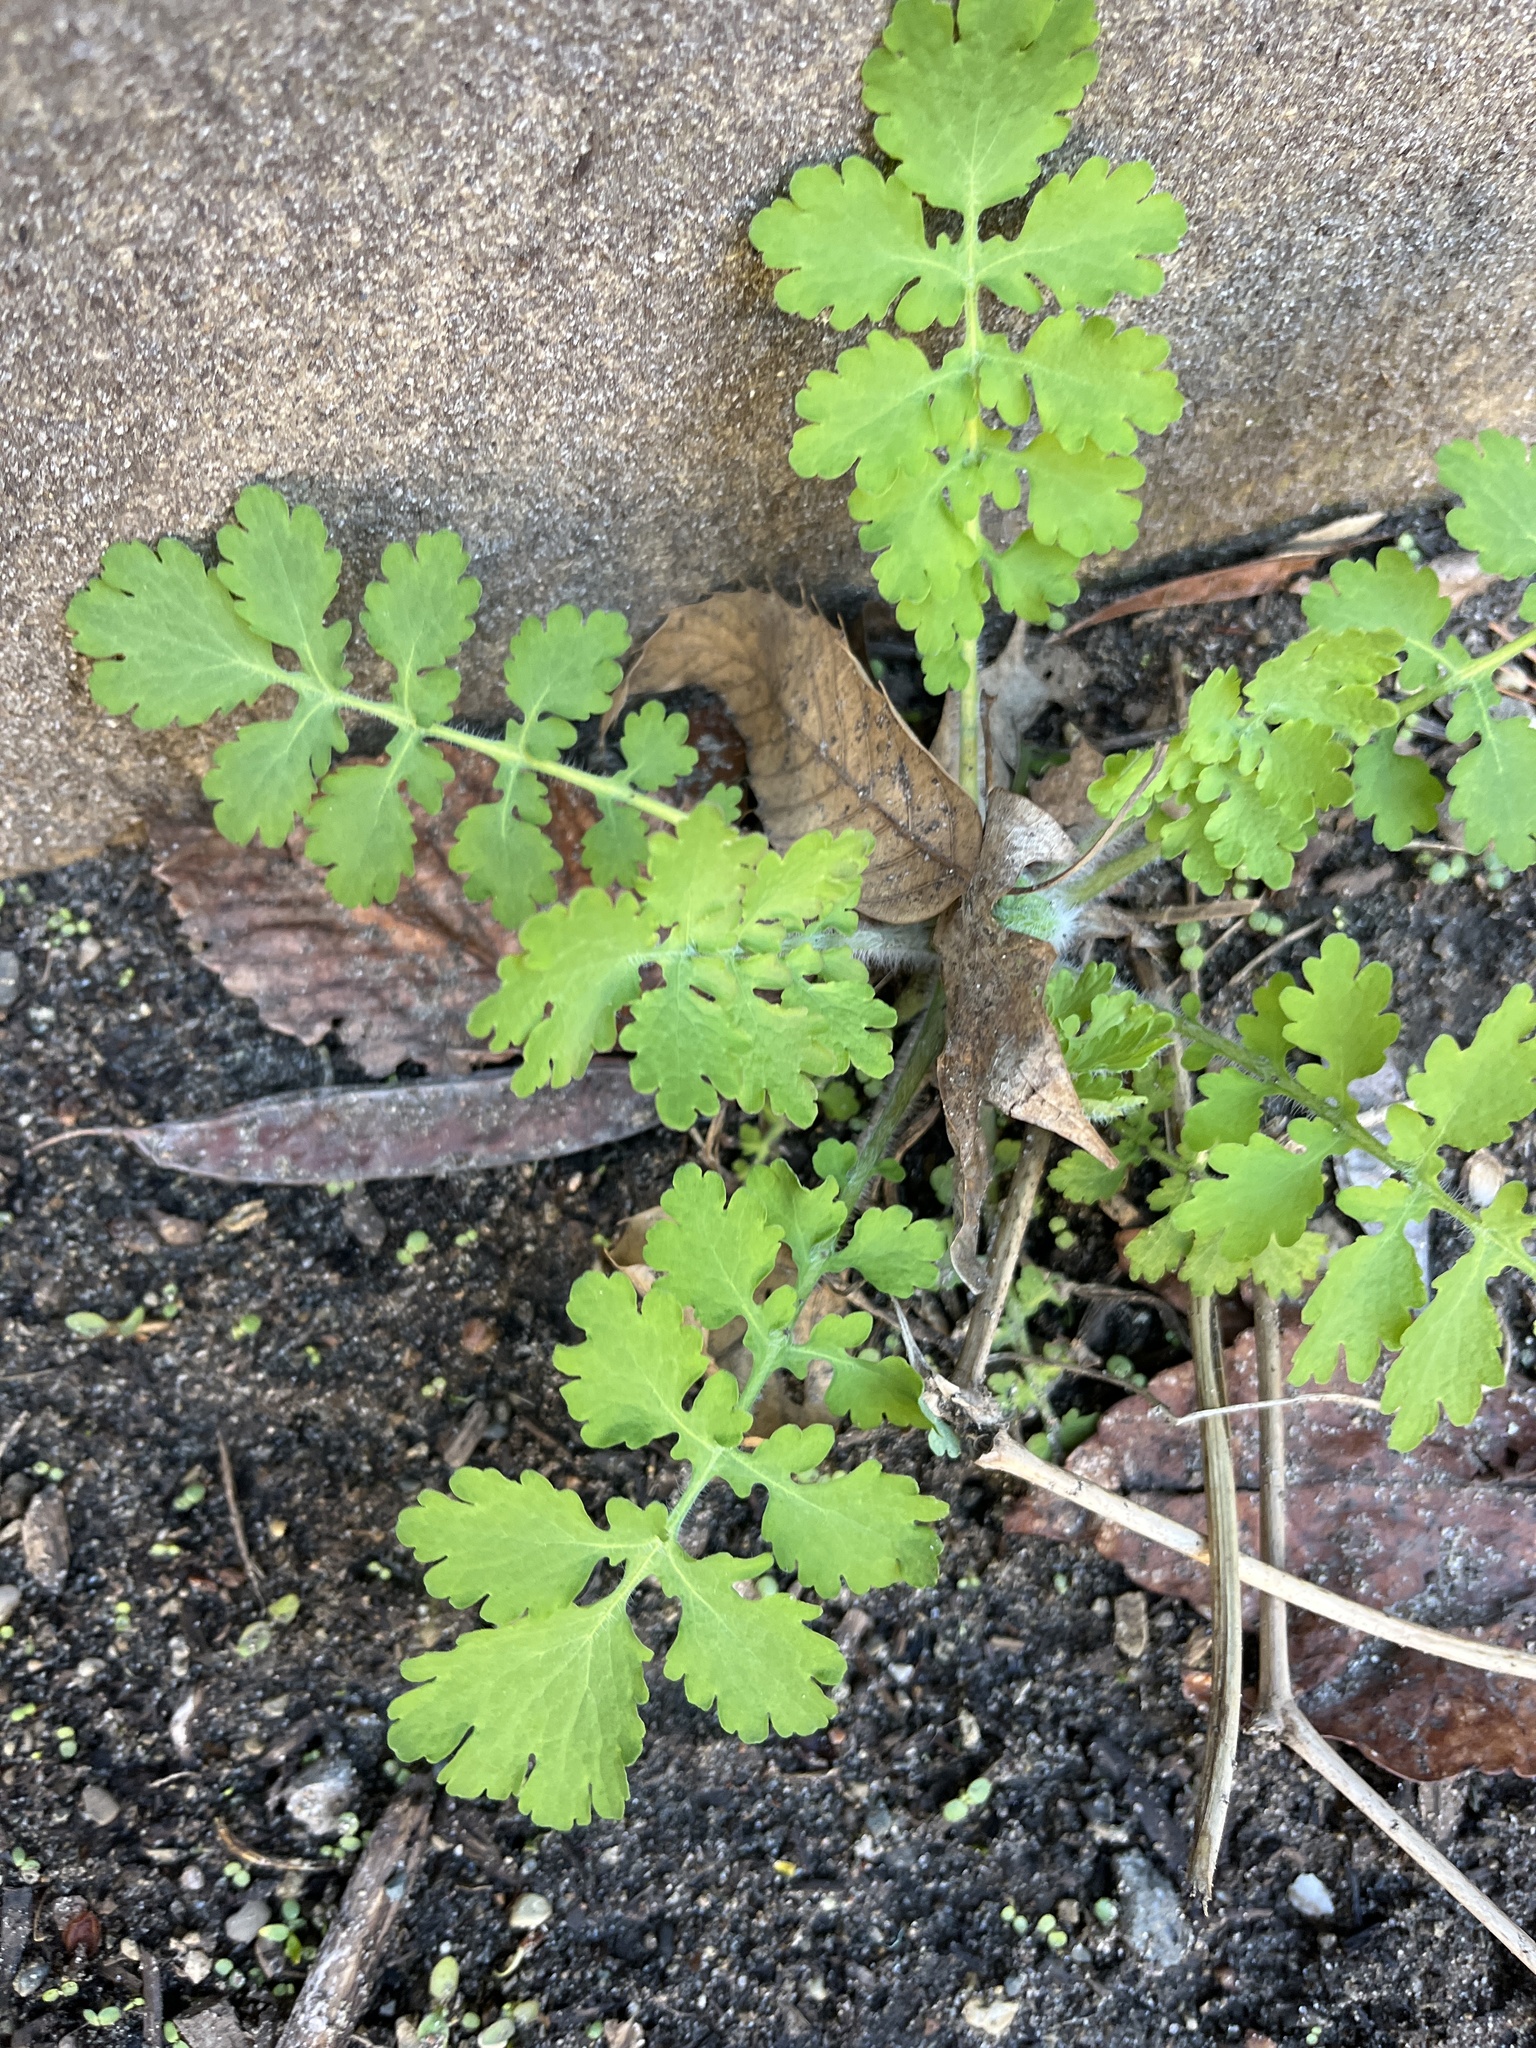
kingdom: Plantae
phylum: Tracheophyta
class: Magnoliopsida
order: Ranunculales
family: Papaveraceae
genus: Chelidonium
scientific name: Chelidonium majus
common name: Greater celandine
